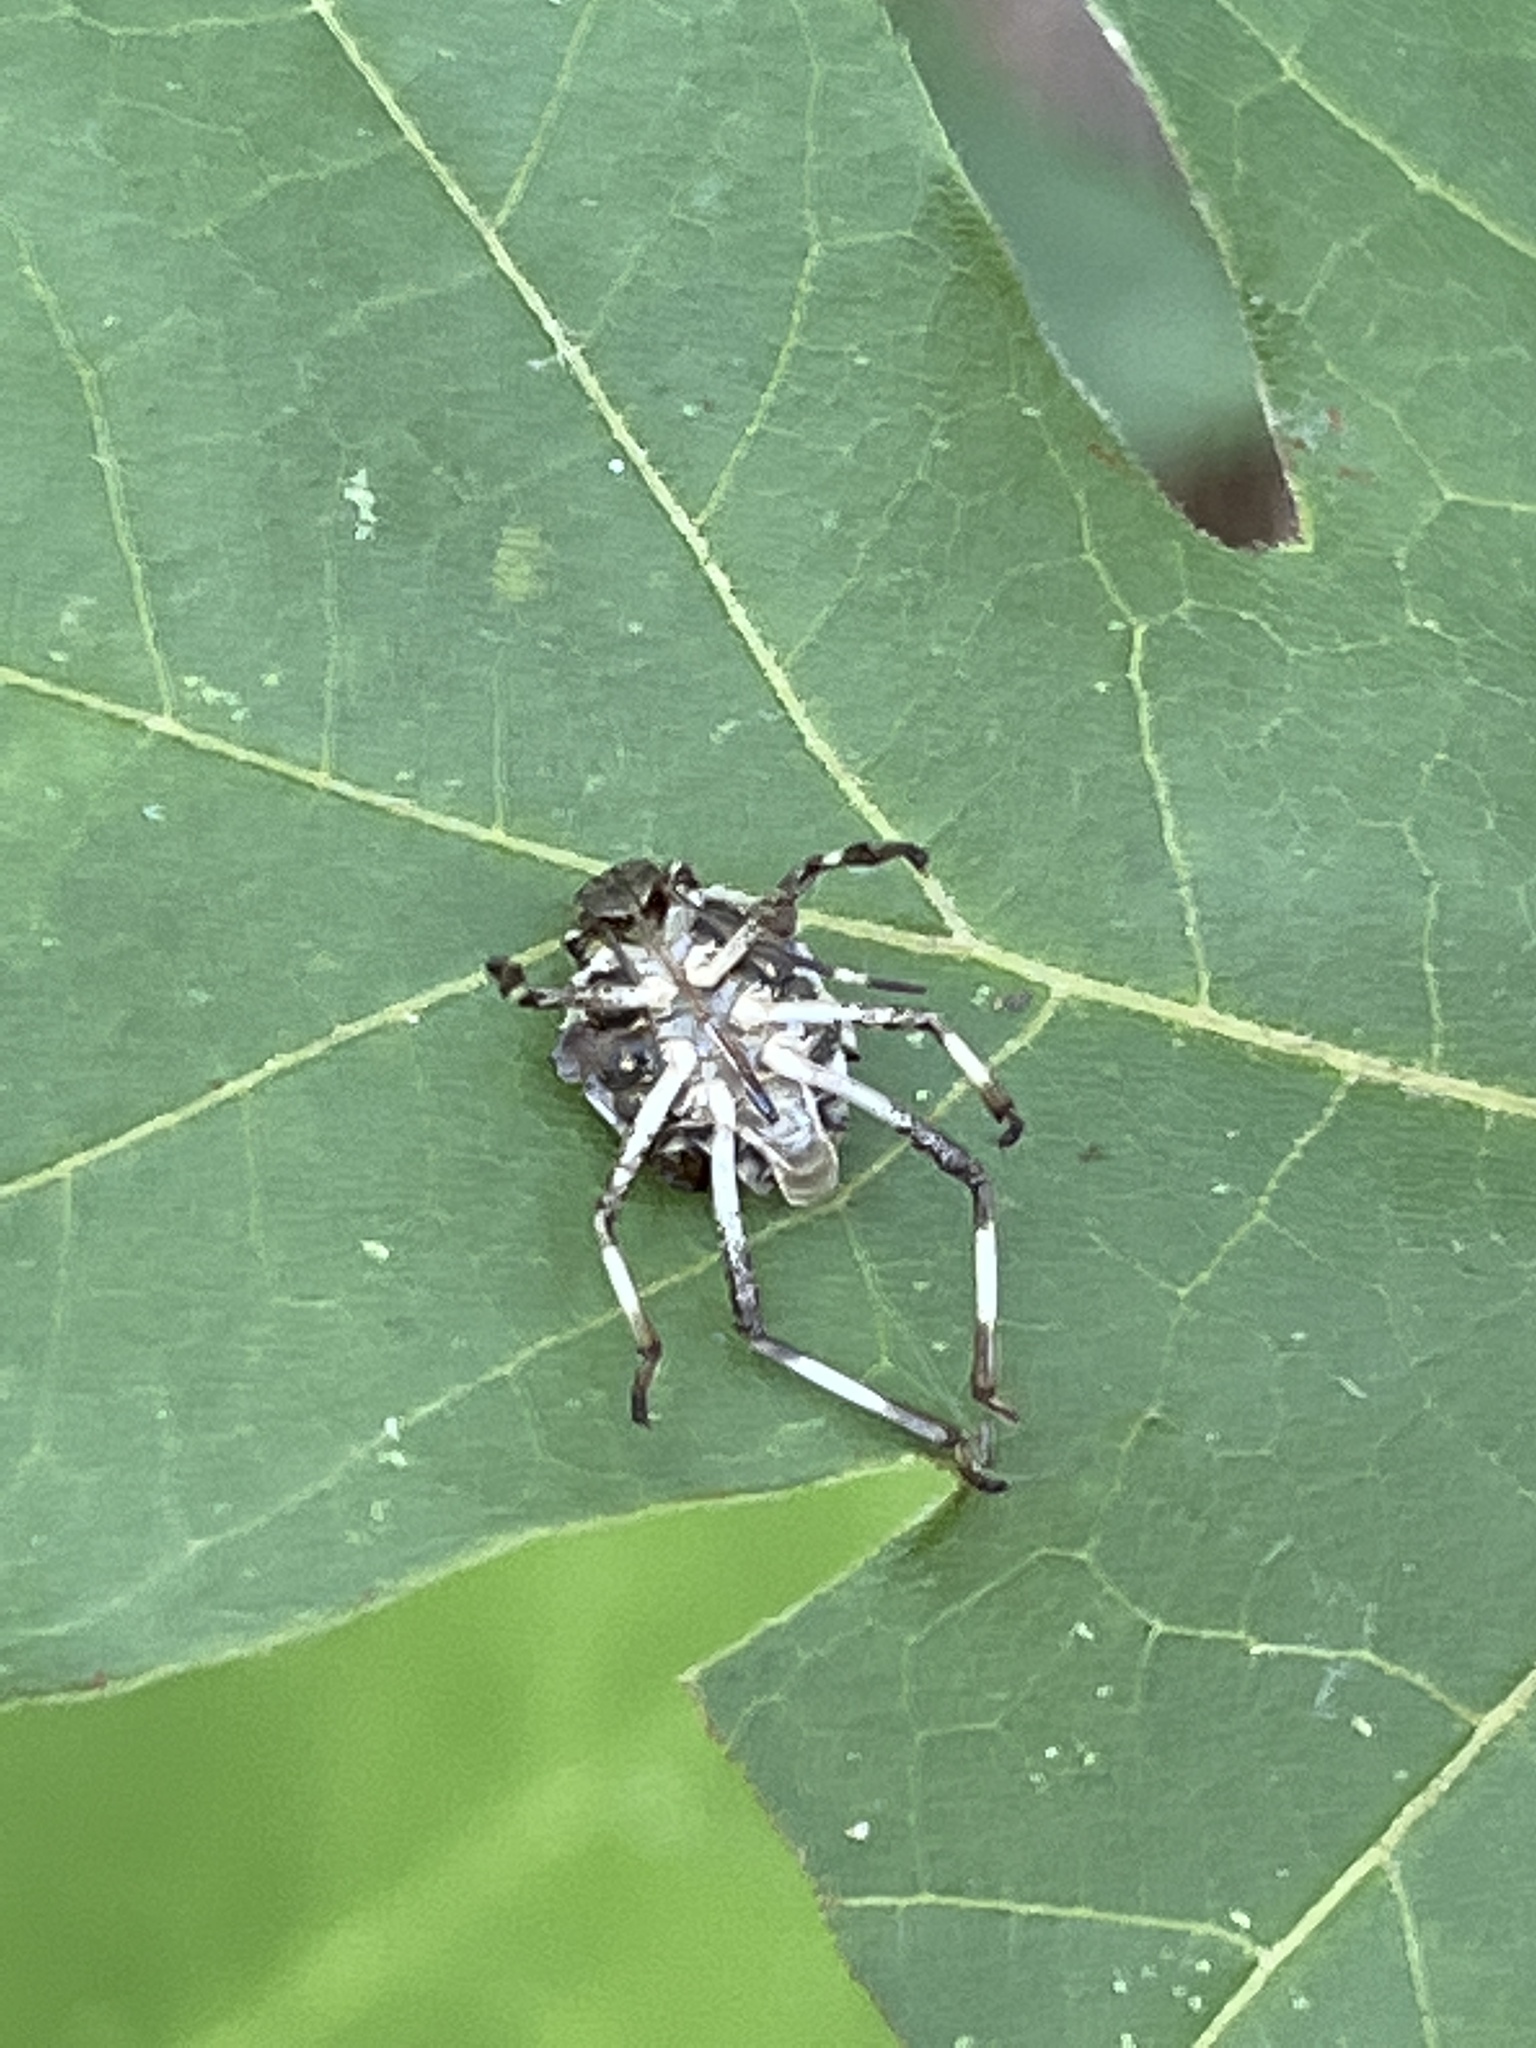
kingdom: Animalia
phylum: Arthropoda
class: Insecta
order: Hemiptera
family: Pentatomidae
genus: Halyomorpha
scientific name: Halyomorpha halys
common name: Brown marmorated stink bug
